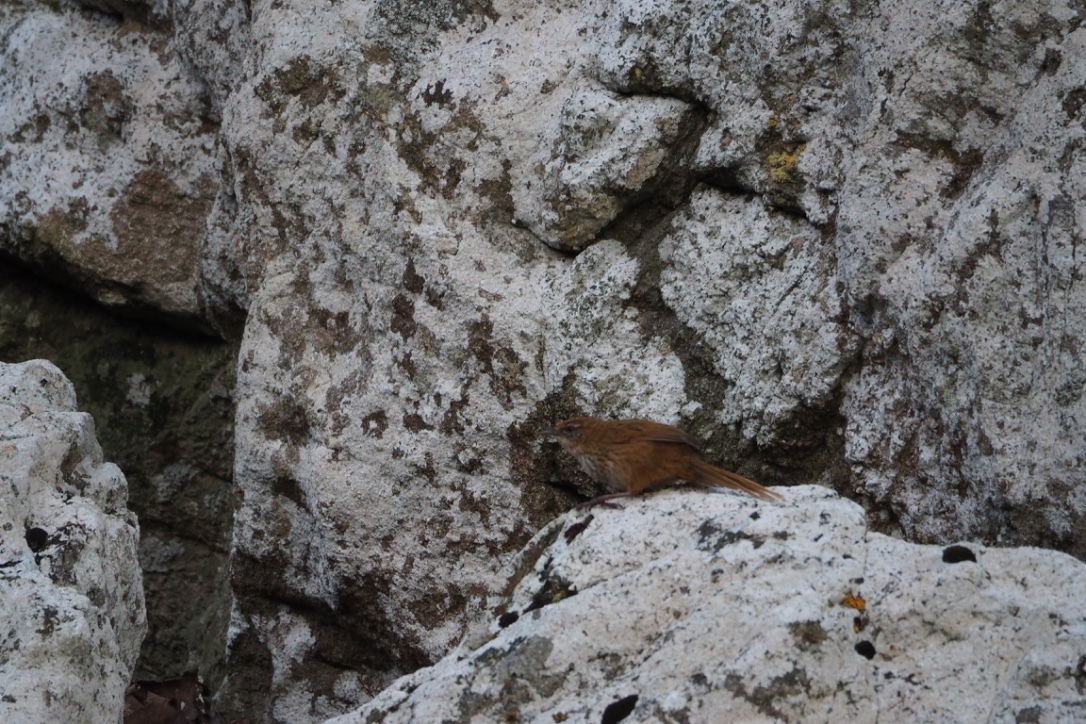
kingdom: Animalia
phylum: Chordata
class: Aves
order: Passeriformes
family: Locustellidae
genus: Megalurus
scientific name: Megalurus punctatus
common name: New zealand fernbird
